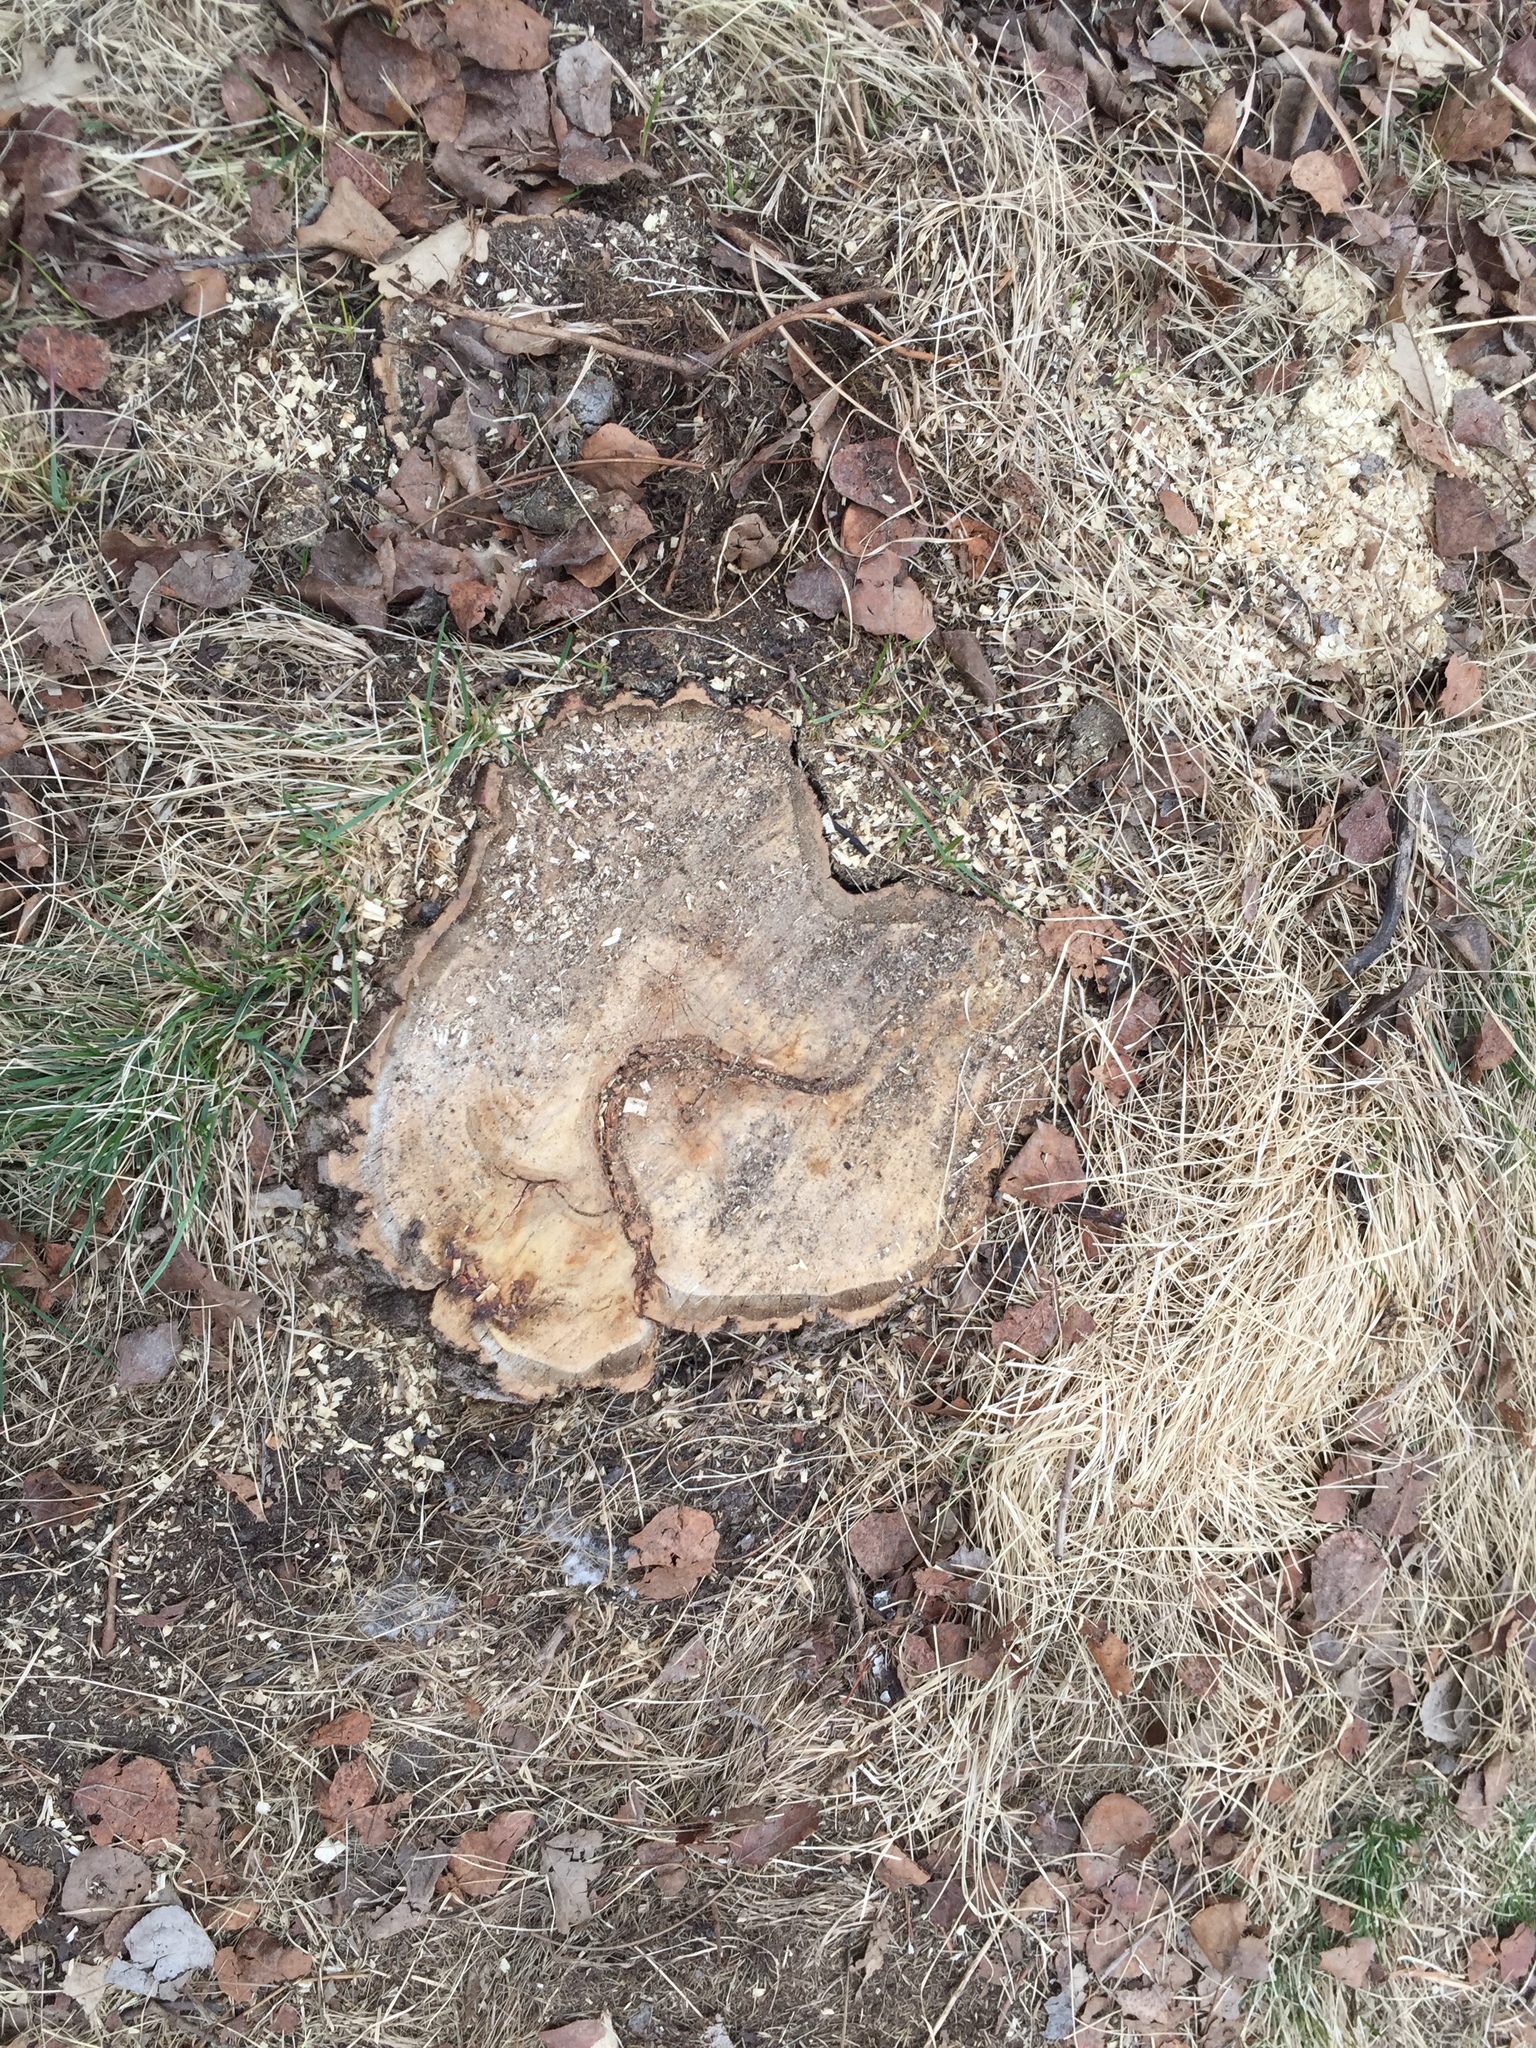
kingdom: Plantae
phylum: Tracheophyta
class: Magnoliopsida
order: Fagales
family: Fagaceae
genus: Quercus
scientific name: Quercus macrocarpa
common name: Bur oak
